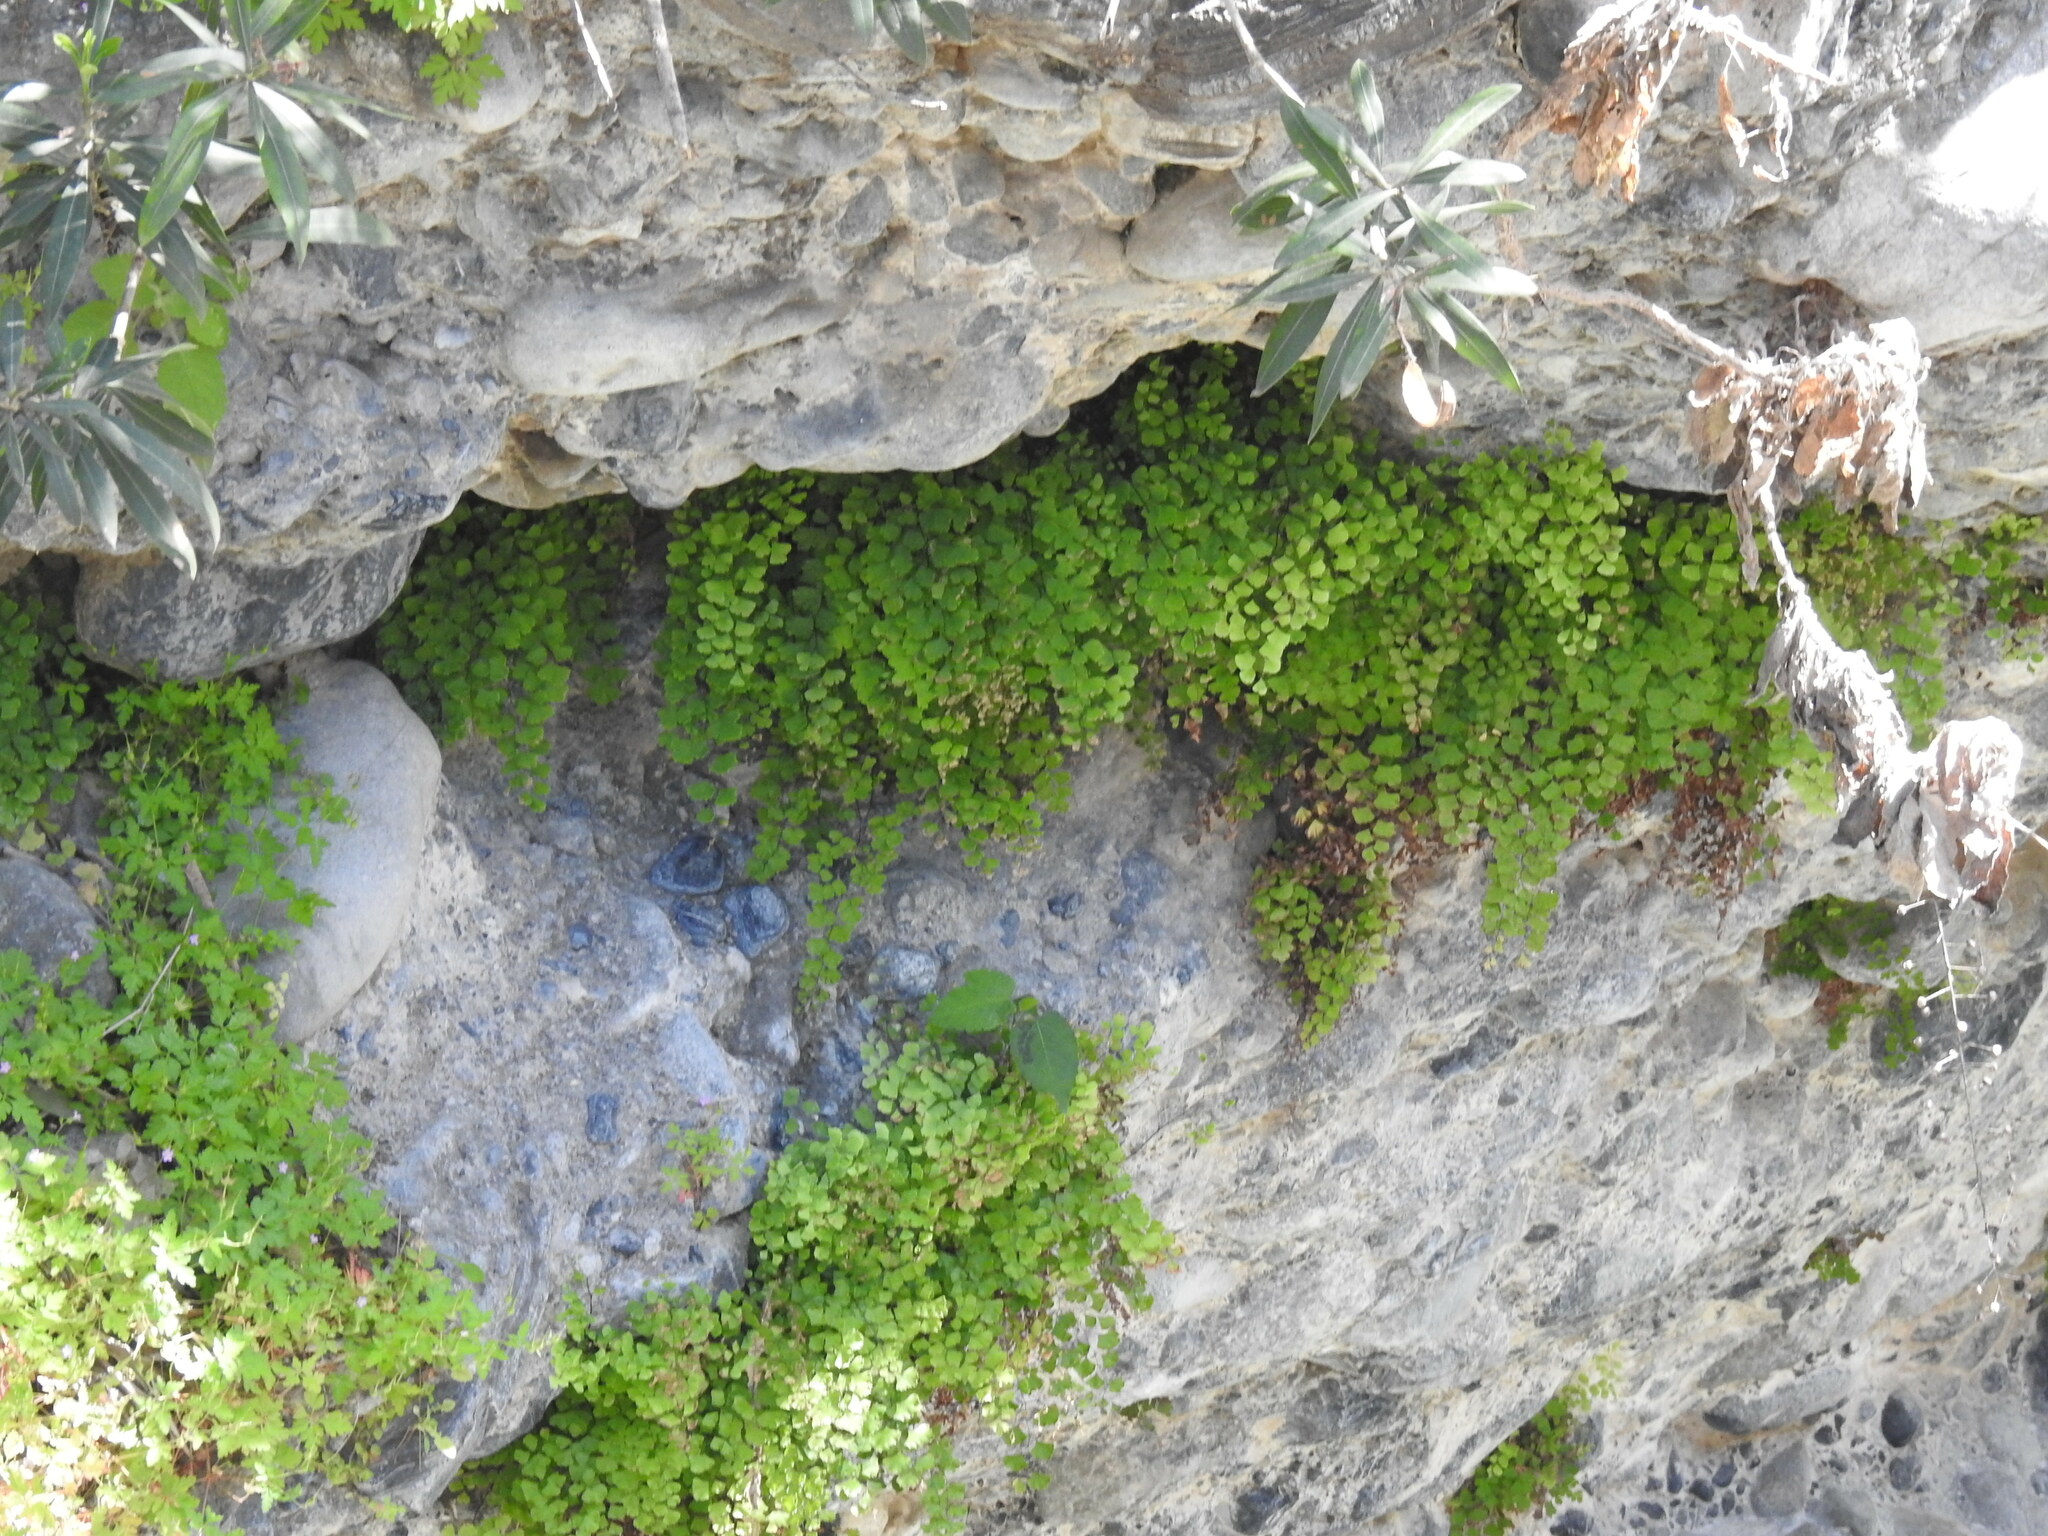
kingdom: Plantae
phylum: Tracheophyta
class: Polypodiopsida
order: Polypodiales
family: Pteridaceae
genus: Adiantum
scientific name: Adiantum capillus-veneris
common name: Maidenhair fern
